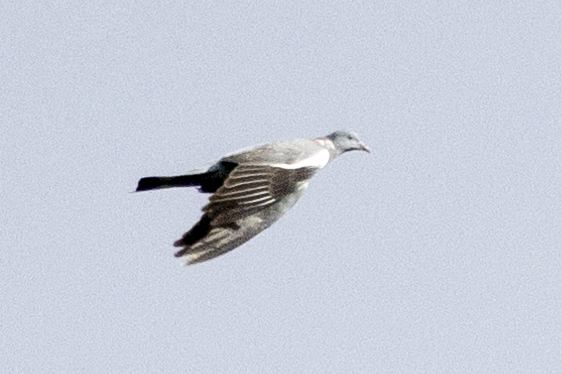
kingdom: Animalia
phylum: Chordata
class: Aves
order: Columbiformes
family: Columbidae
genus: Columba
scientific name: Columba palumbus
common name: Common wood pigeon
